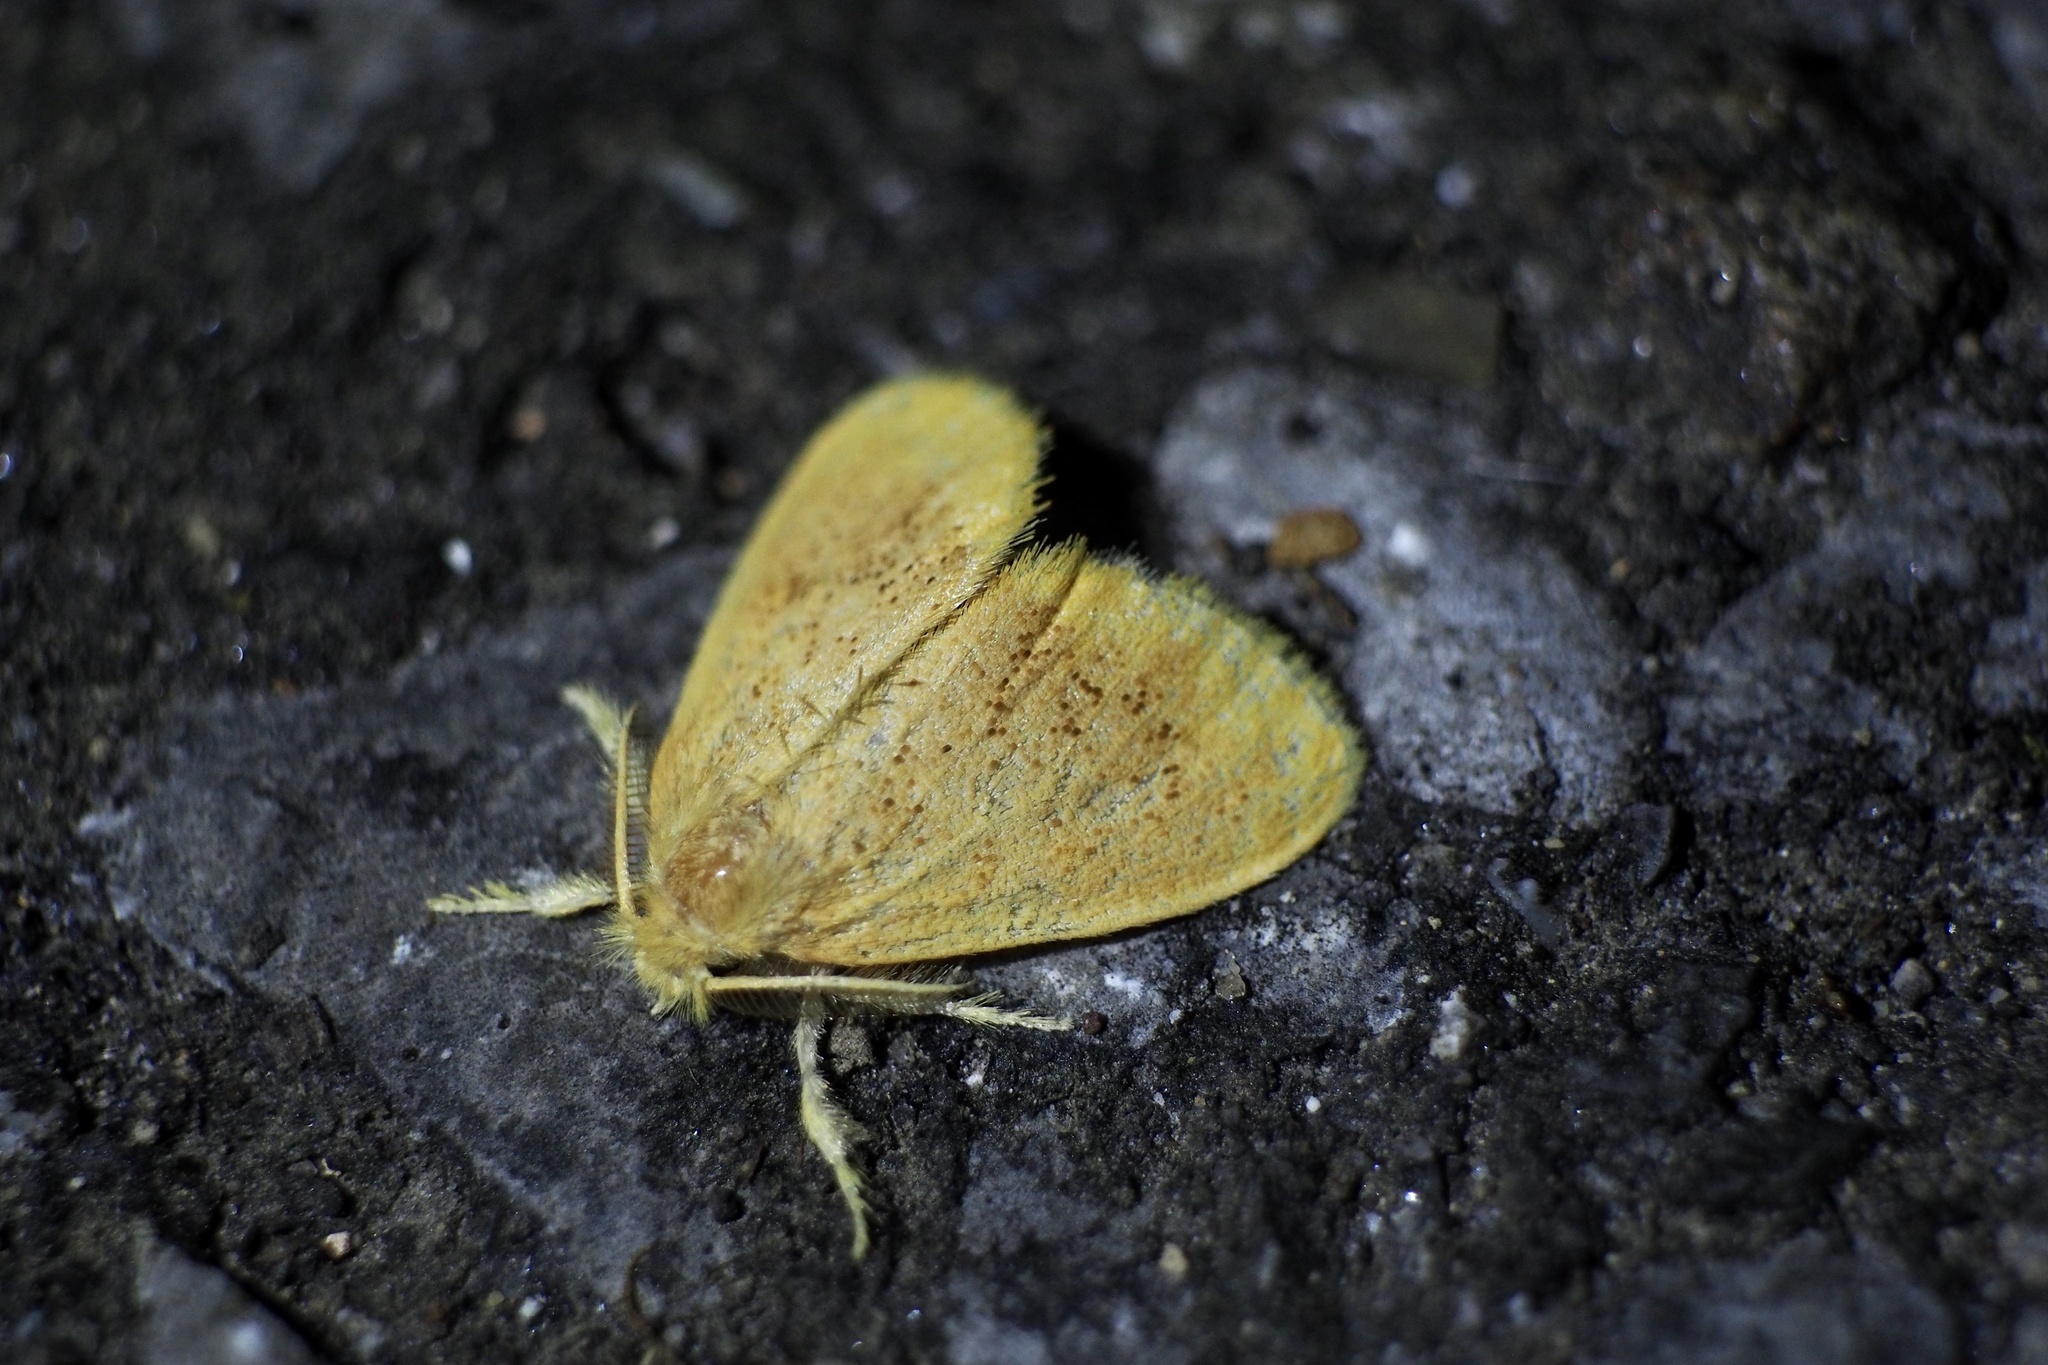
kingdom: Animalia
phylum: Arthropoda
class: Insecta
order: Lepidoptera
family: Erebidae
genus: Somena
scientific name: Somena
